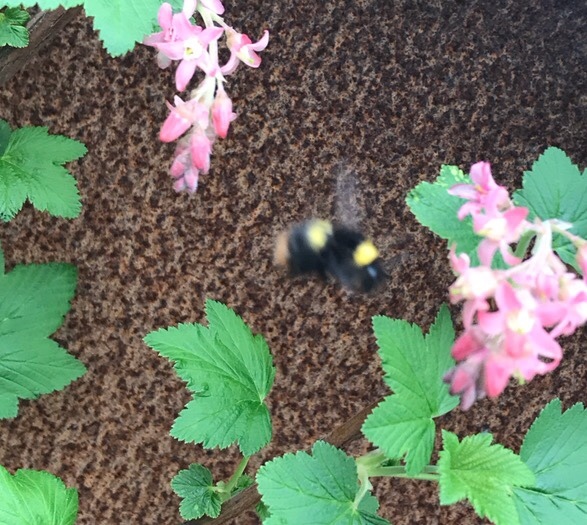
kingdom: Animalia
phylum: Arthropoda
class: Insecta
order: Hymenoptera
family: Apidae
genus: Bombus
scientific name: Bombus pratorum
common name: Early humble-bee
